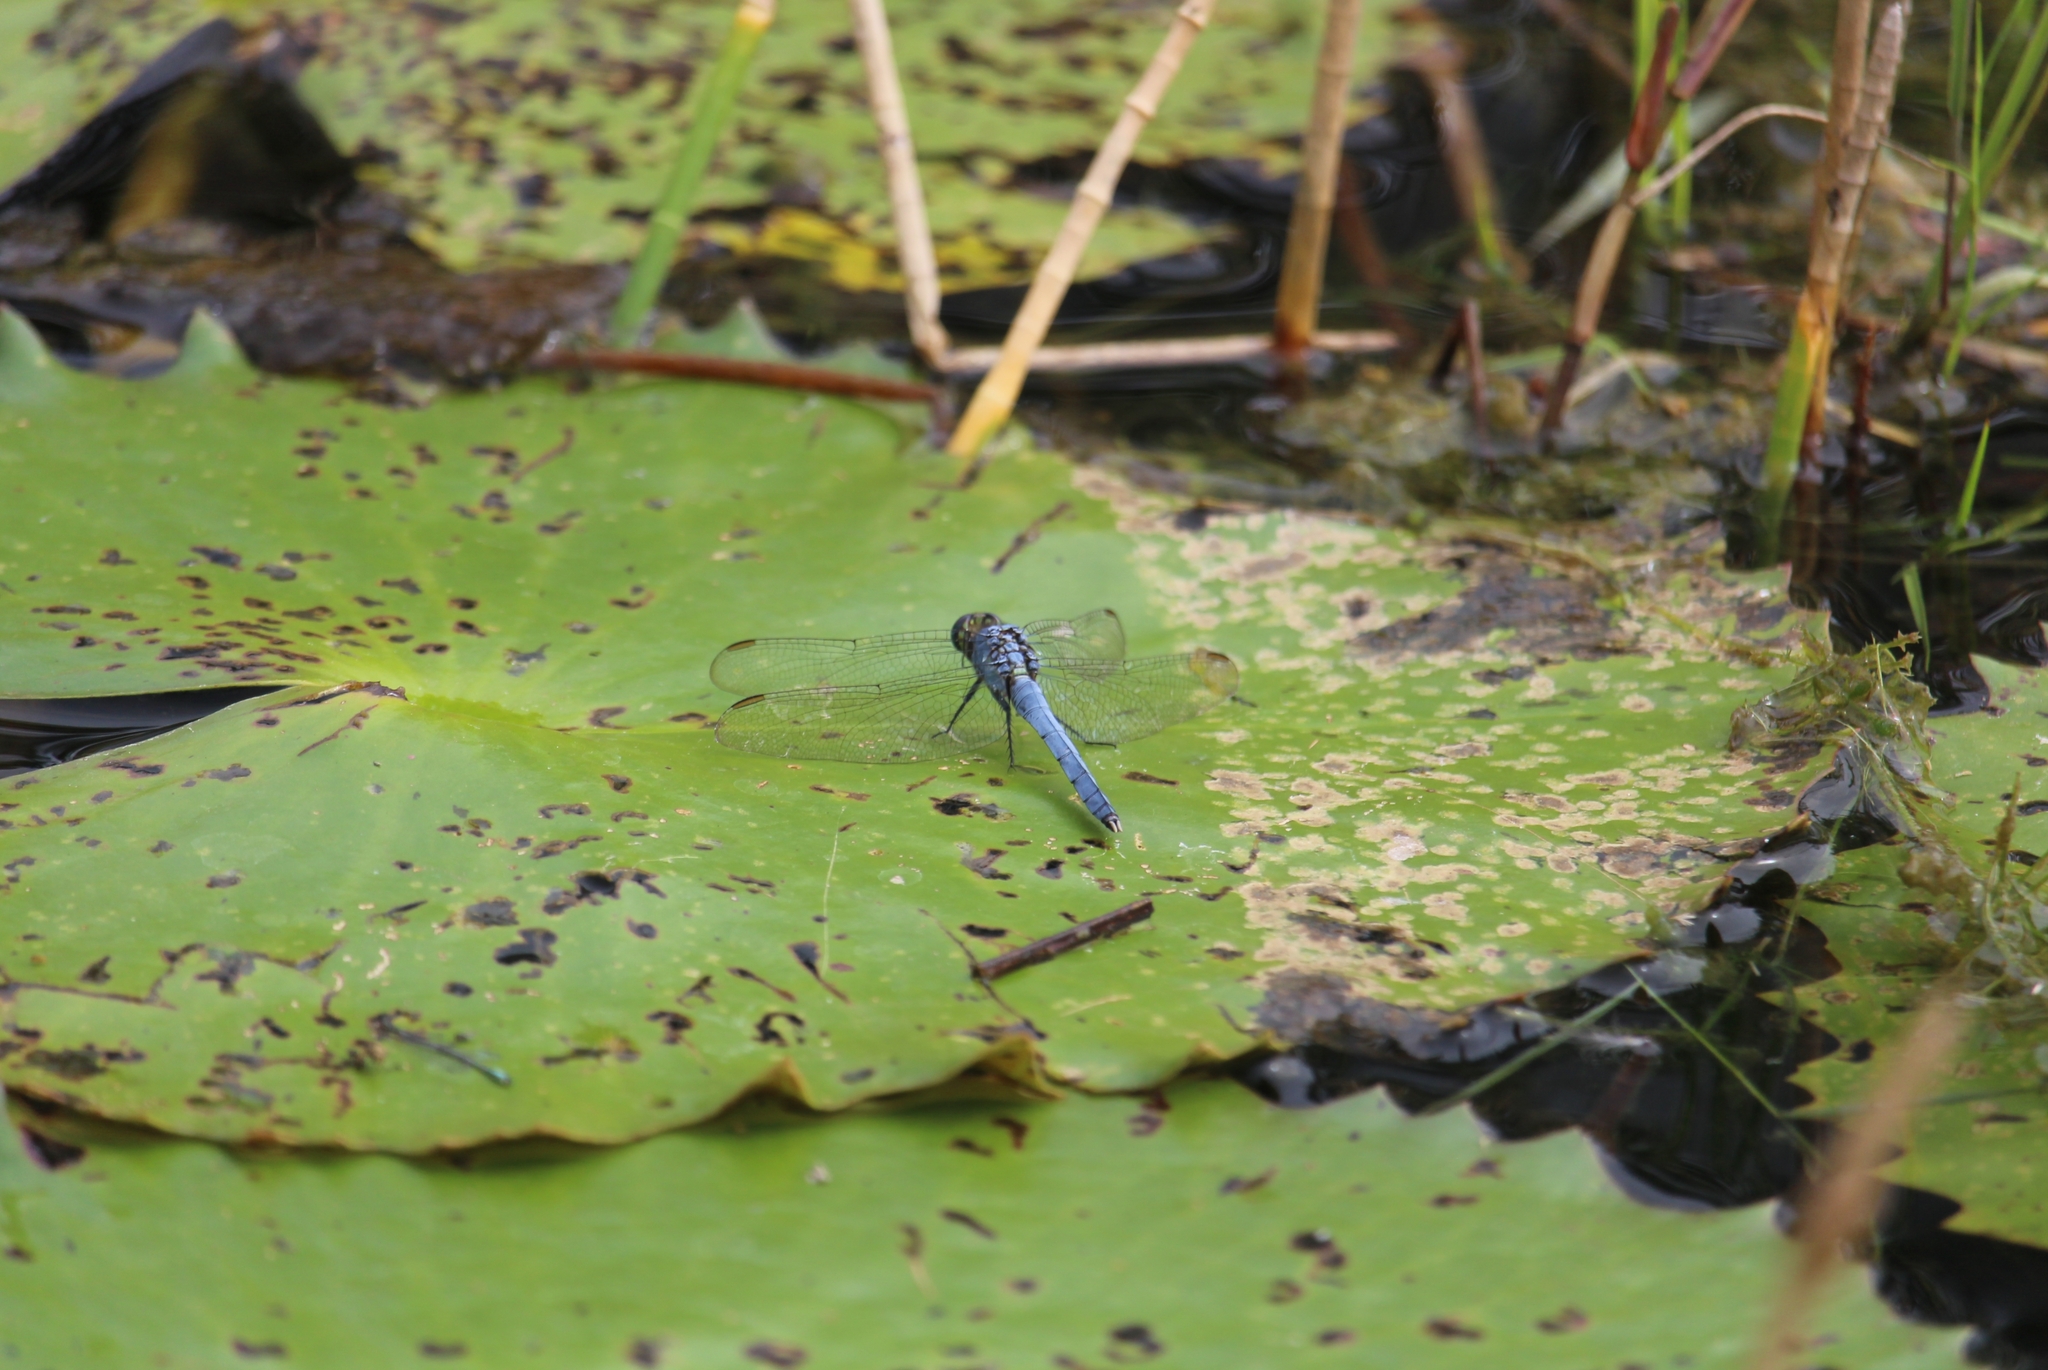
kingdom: Animalia
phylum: Arthropoda
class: Insecta
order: Odonata
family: Libellulidae
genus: Erythemis
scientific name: Erythemis simplicicollis
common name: Eastern pondhawk
